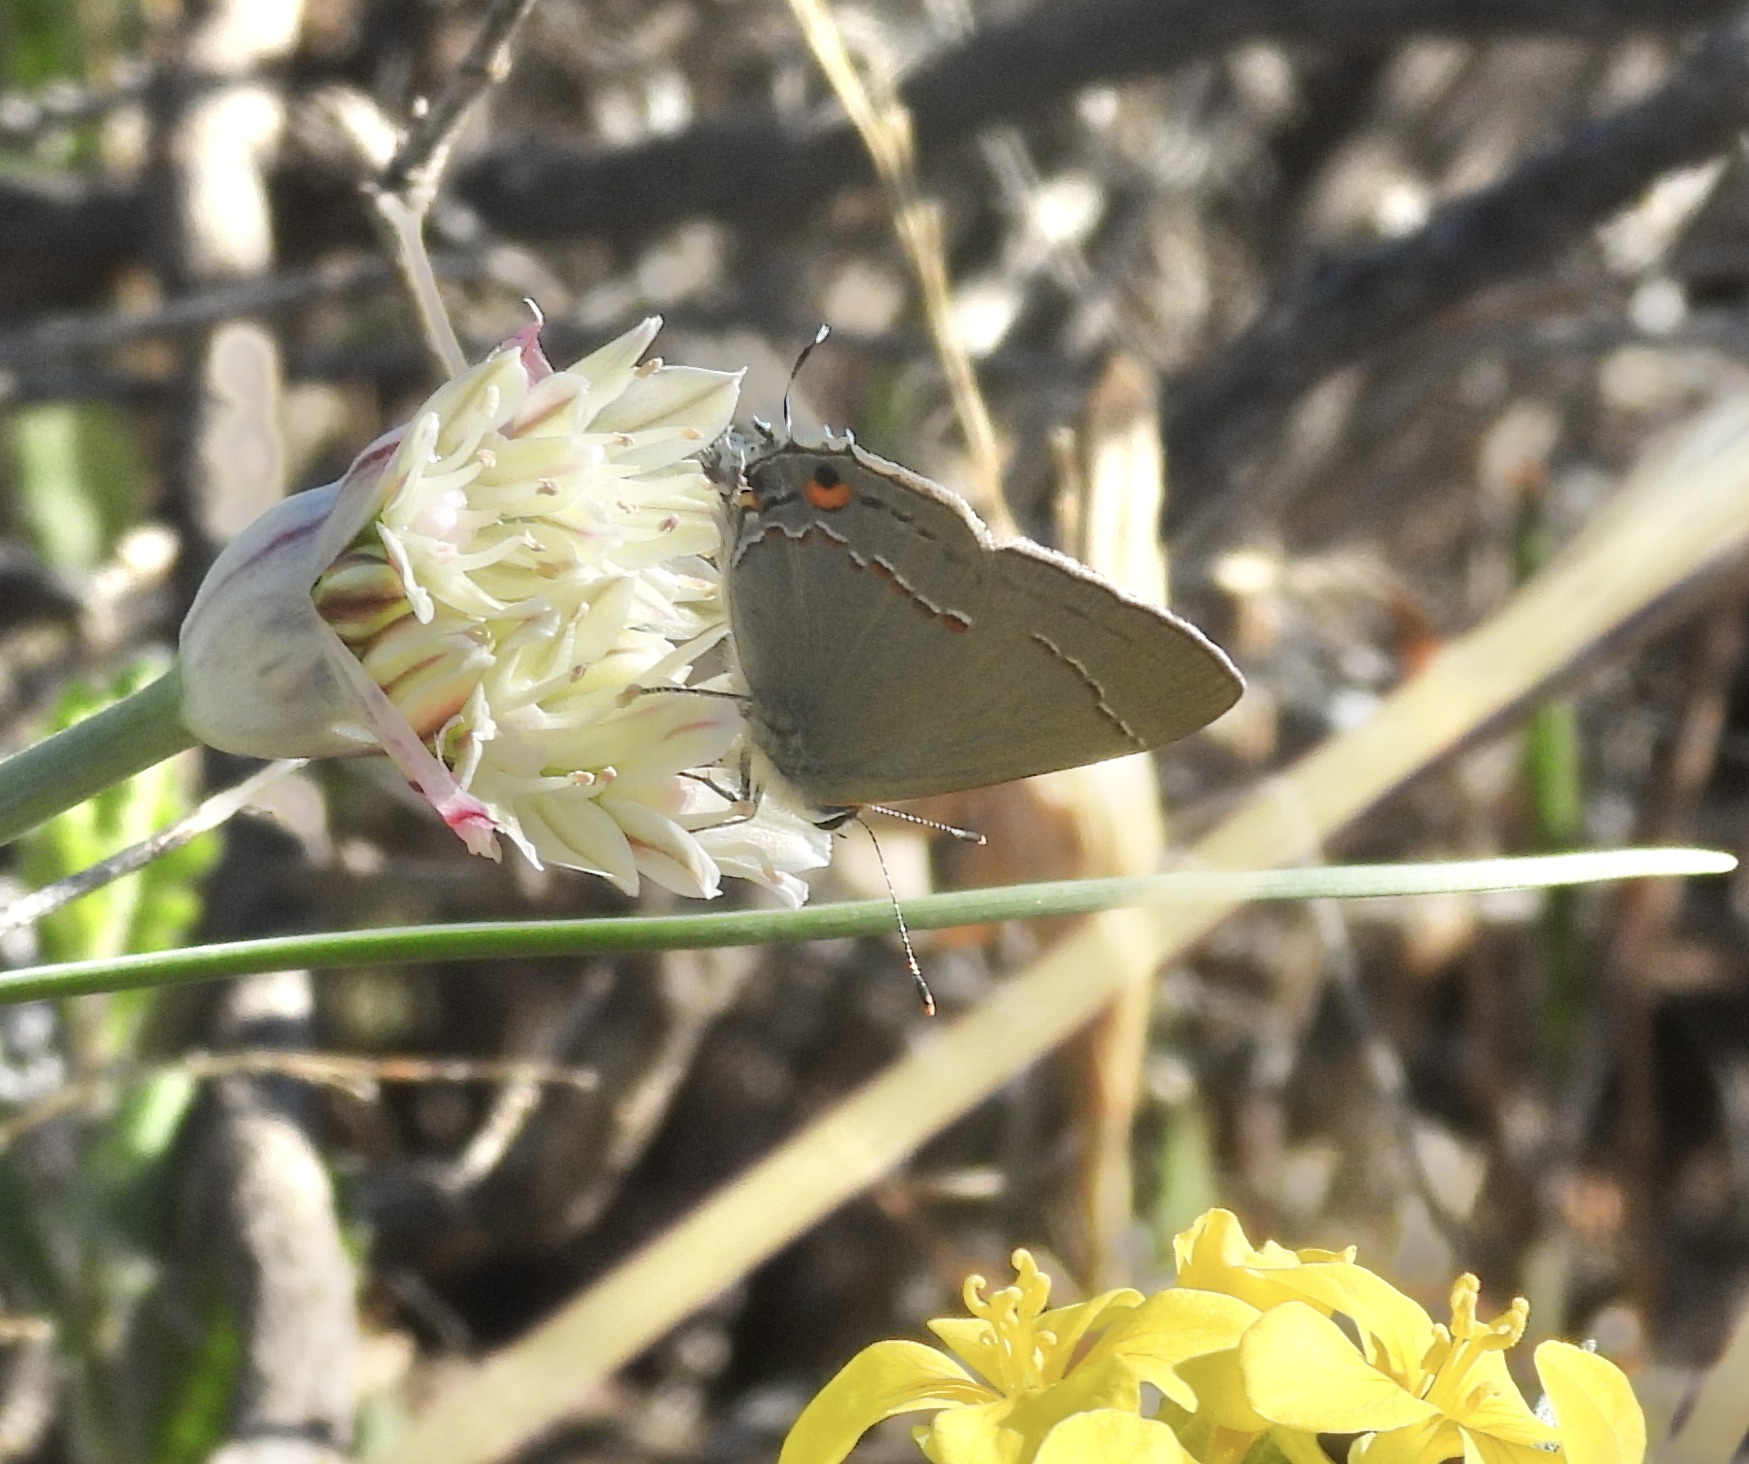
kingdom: Animalia
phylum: Arthropoda
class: Insecta
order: Lepidoptera
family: Lycaenidae
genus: Strymon
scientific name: Strymon melinus
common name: Gray hairstreak
